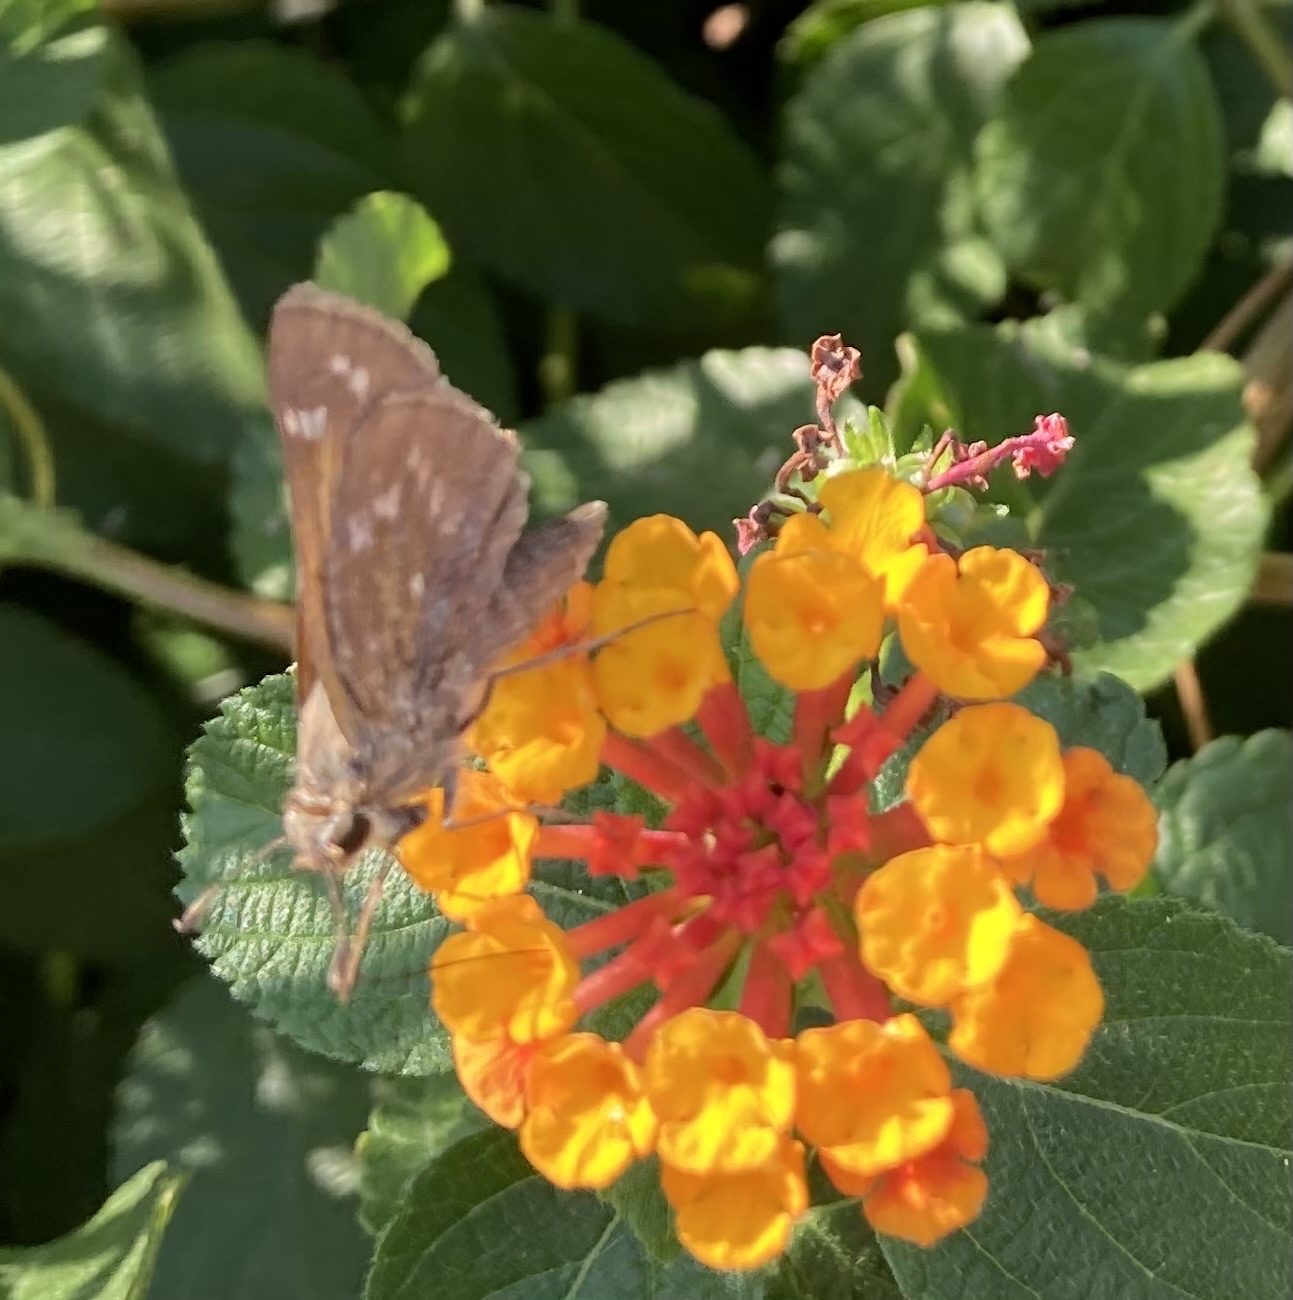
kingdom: Animalia
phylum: Arthropoda
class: Insecta
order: Lepidoptera
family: Hesperiidae
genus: Atalopedes
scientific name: Atalopedes
